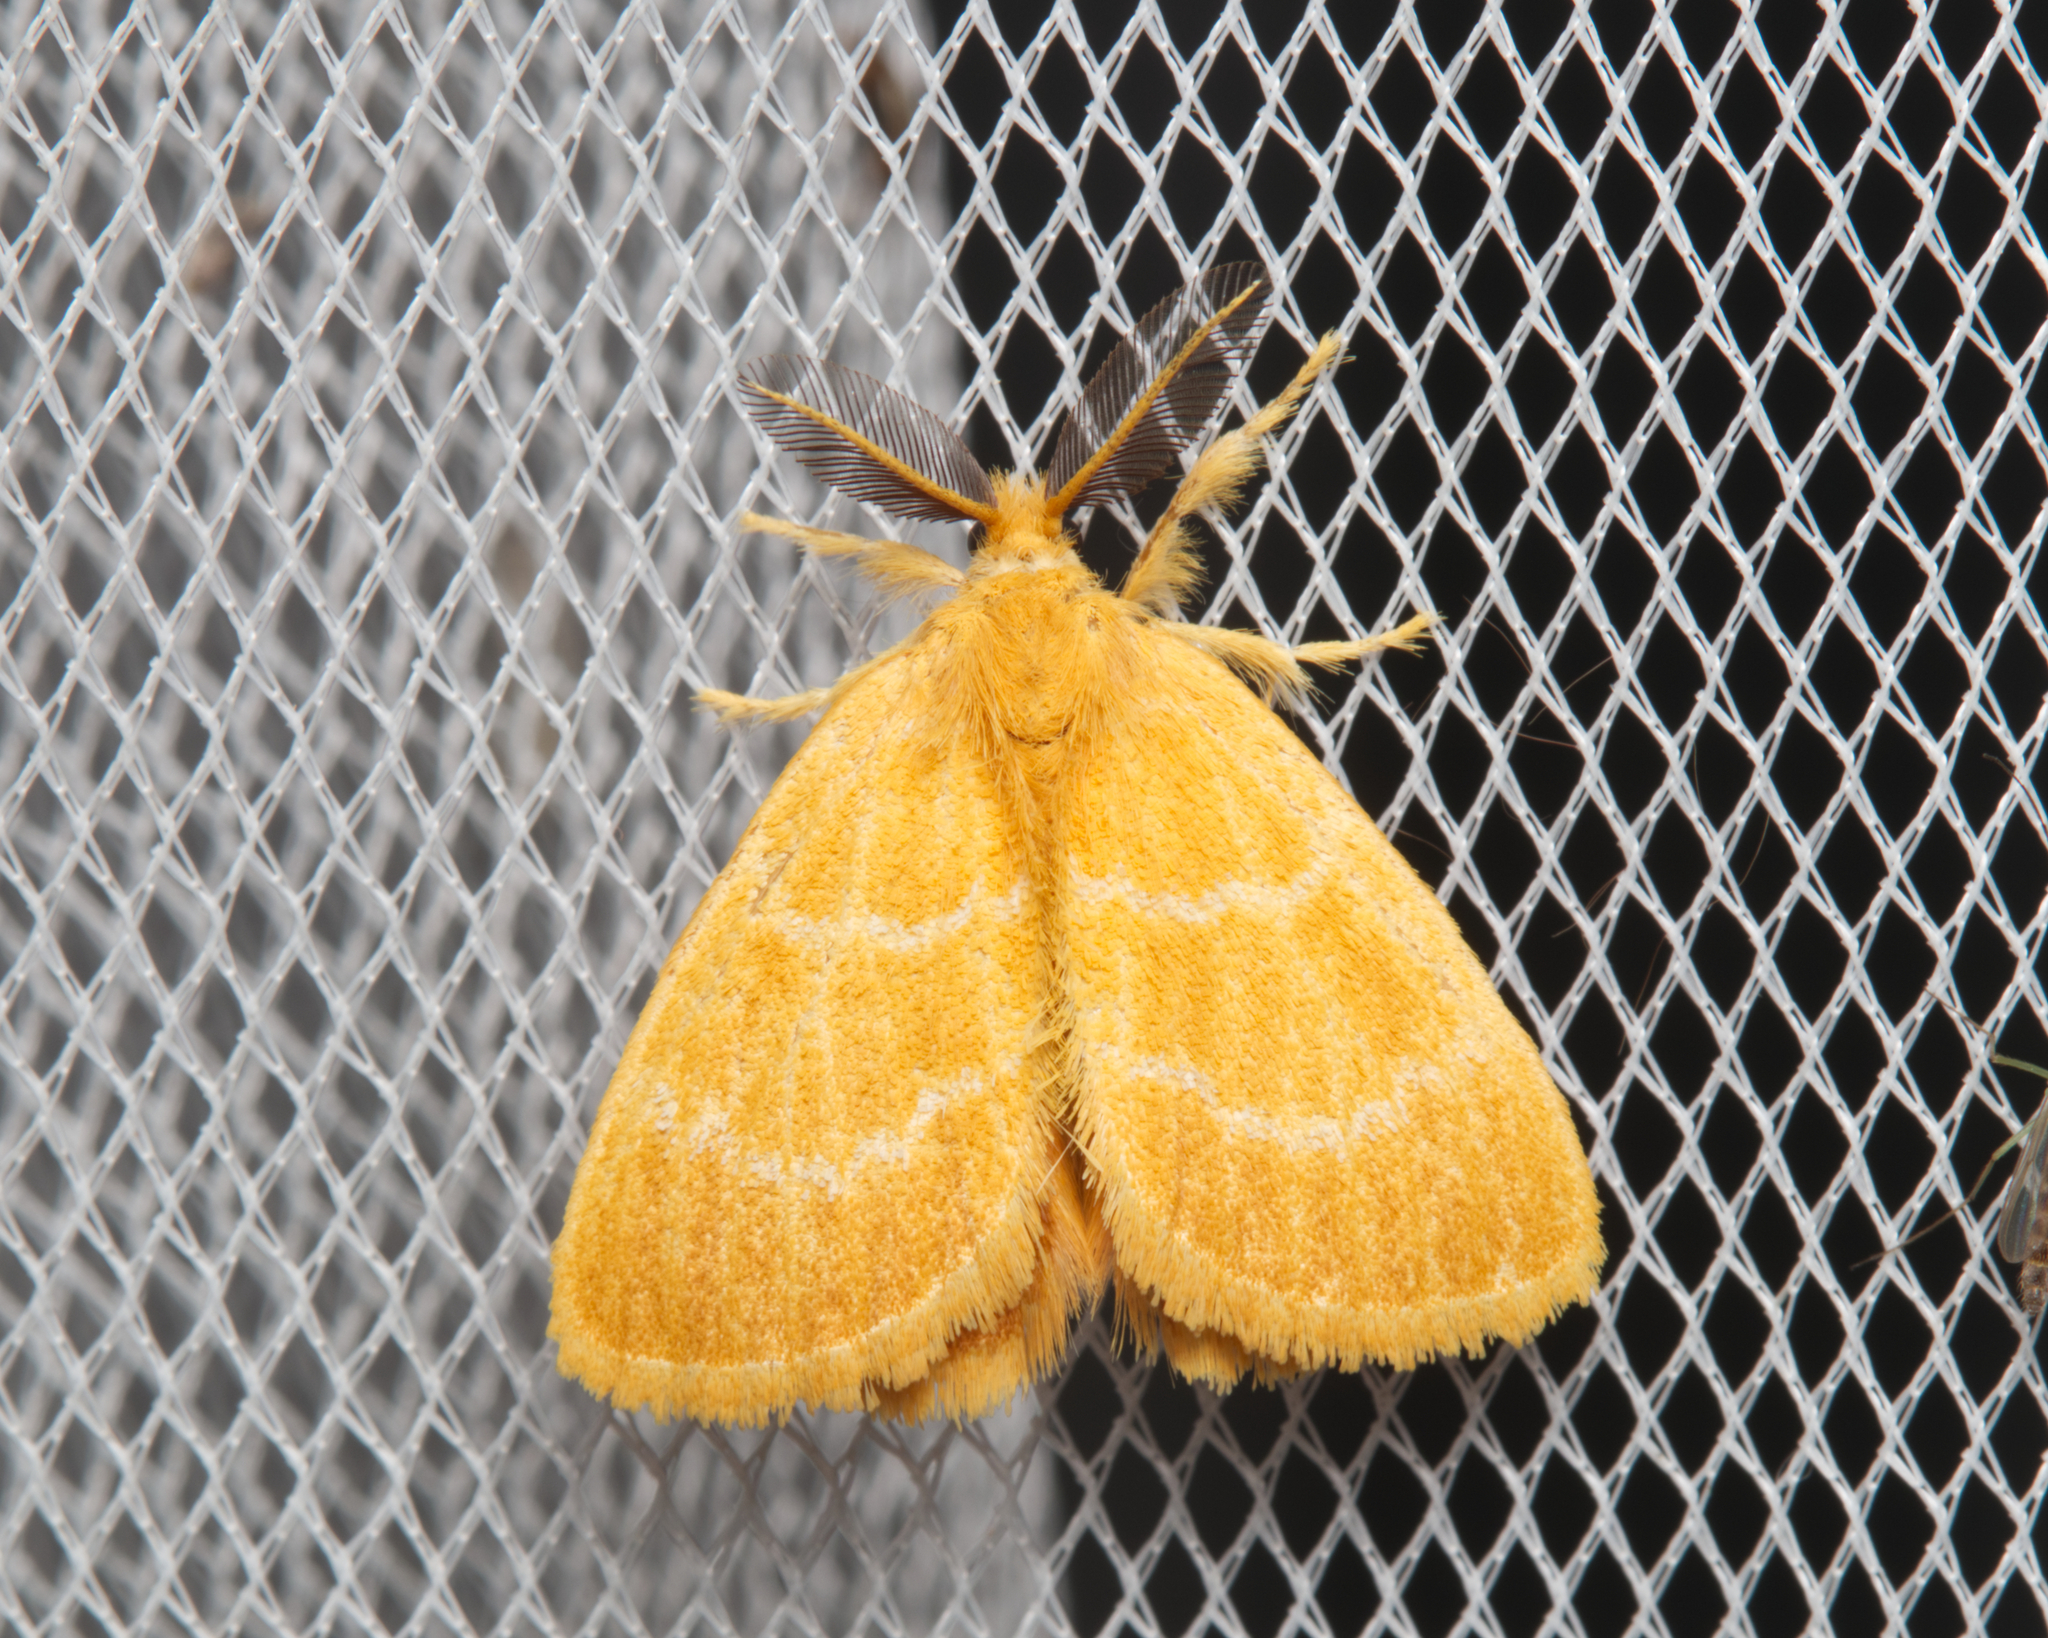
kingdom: Animalia
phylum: Arthropoda
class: Insecta
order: Lepidoptera
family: Erebidae
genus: Euproctis
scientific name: Euproctis lutea
